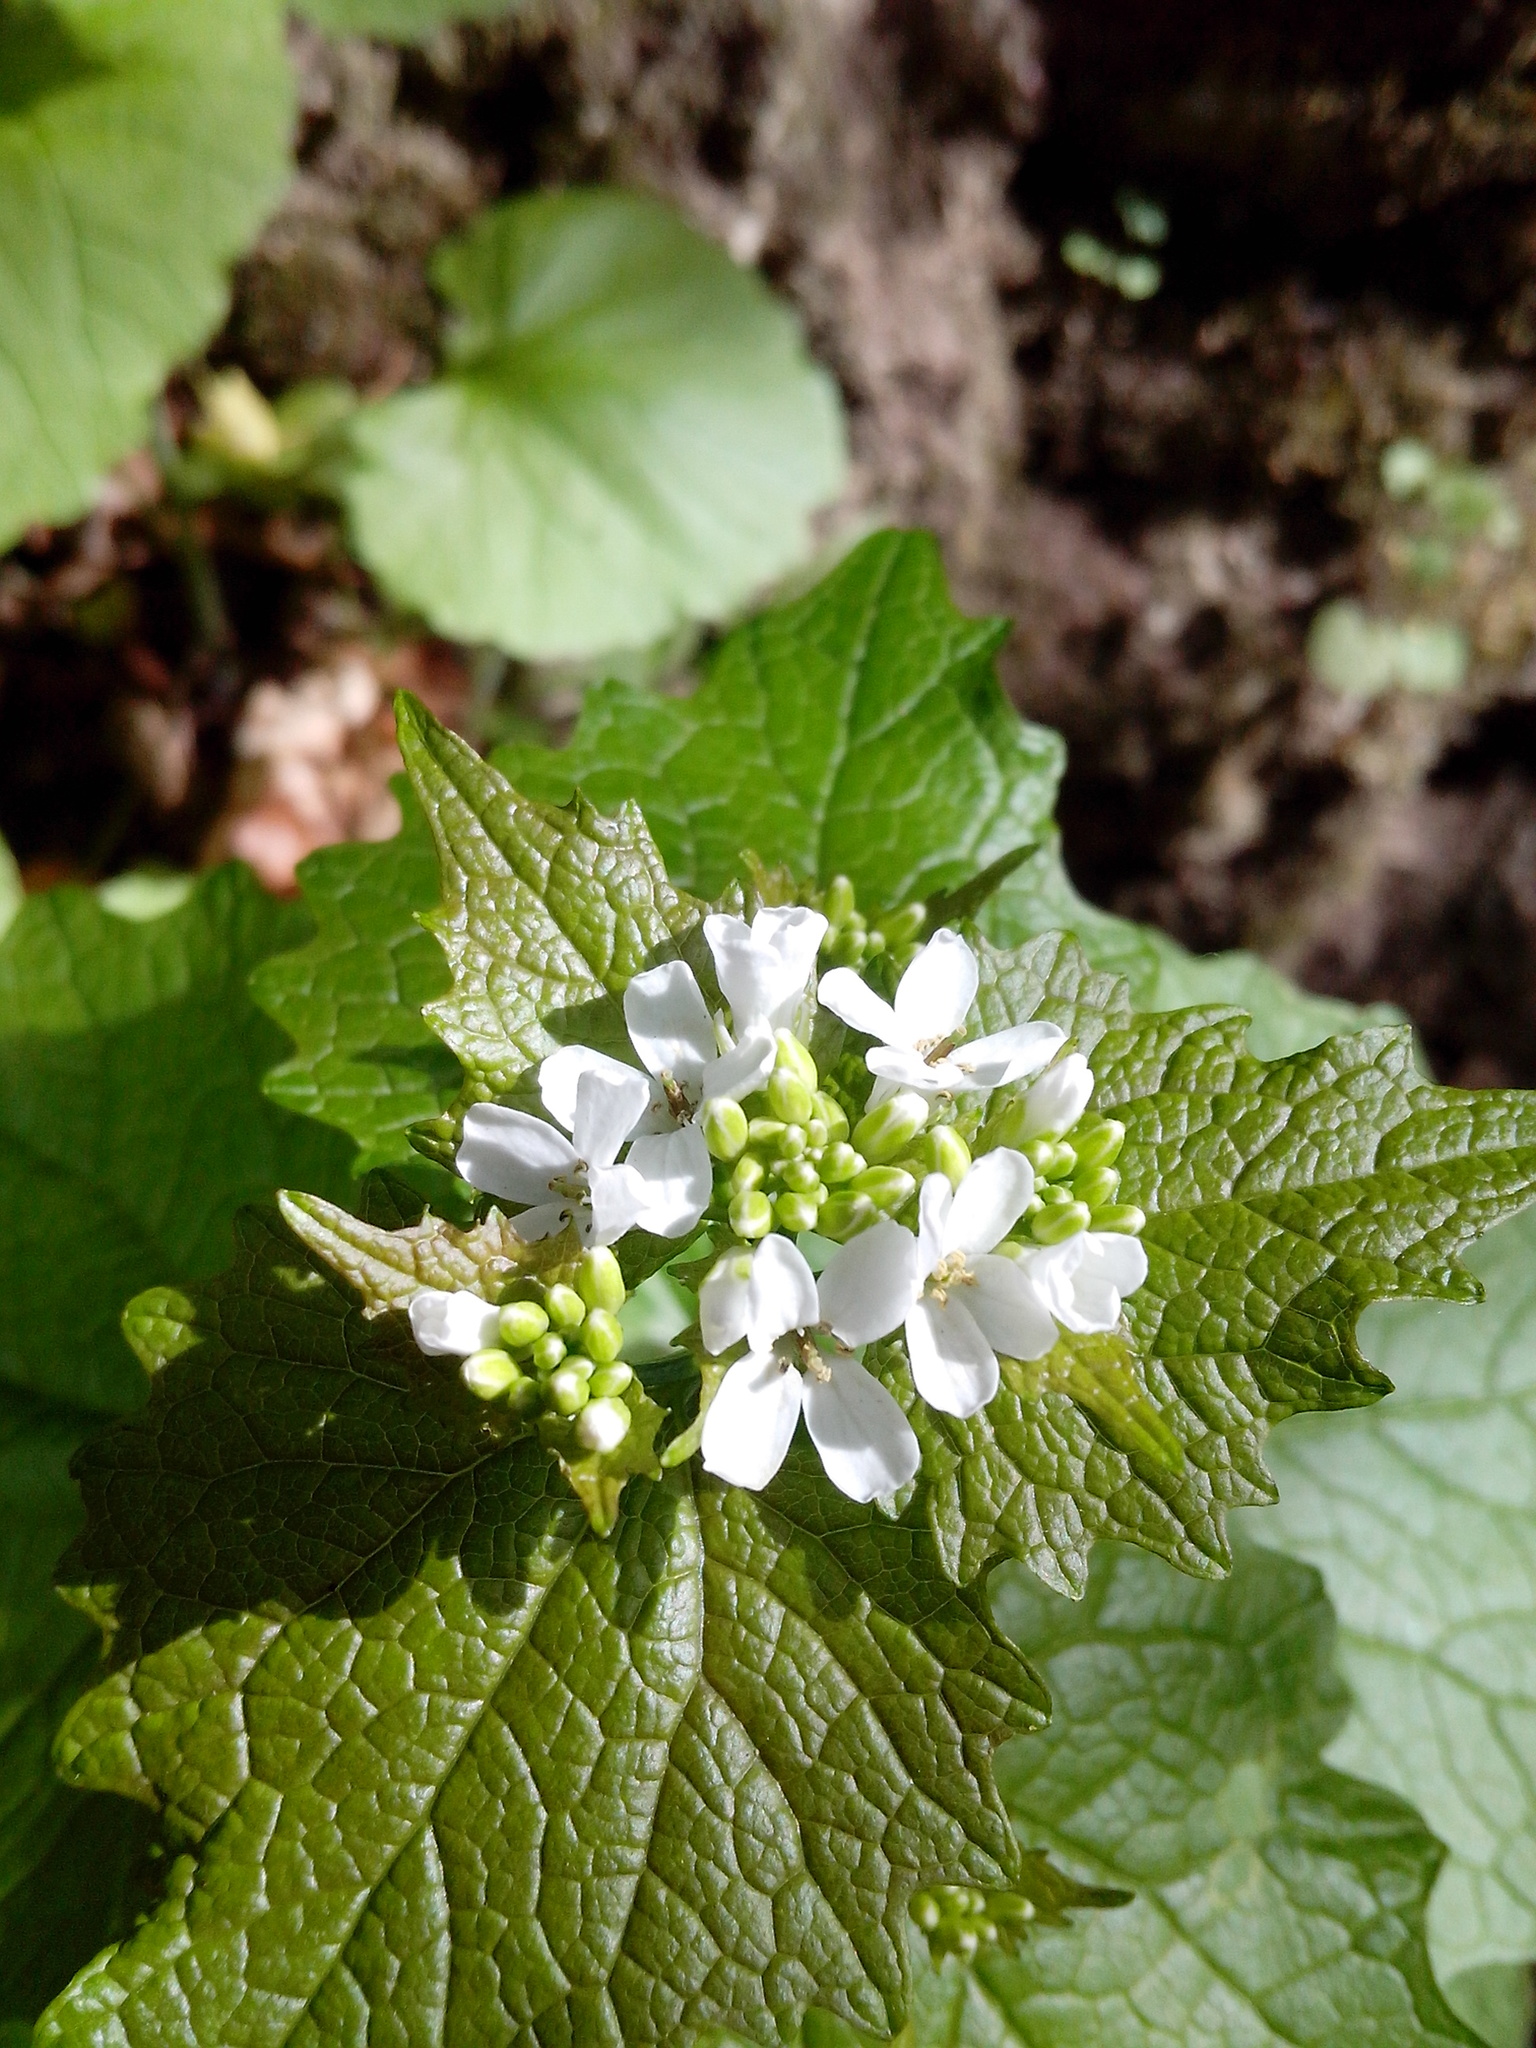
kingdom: Plantae
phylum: Tracheophyta
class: Magnoliopsida
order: Brassicales
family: Brassicaceae
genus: Alliaria
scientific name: Alliaria petiolata
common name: Garlic mustard
